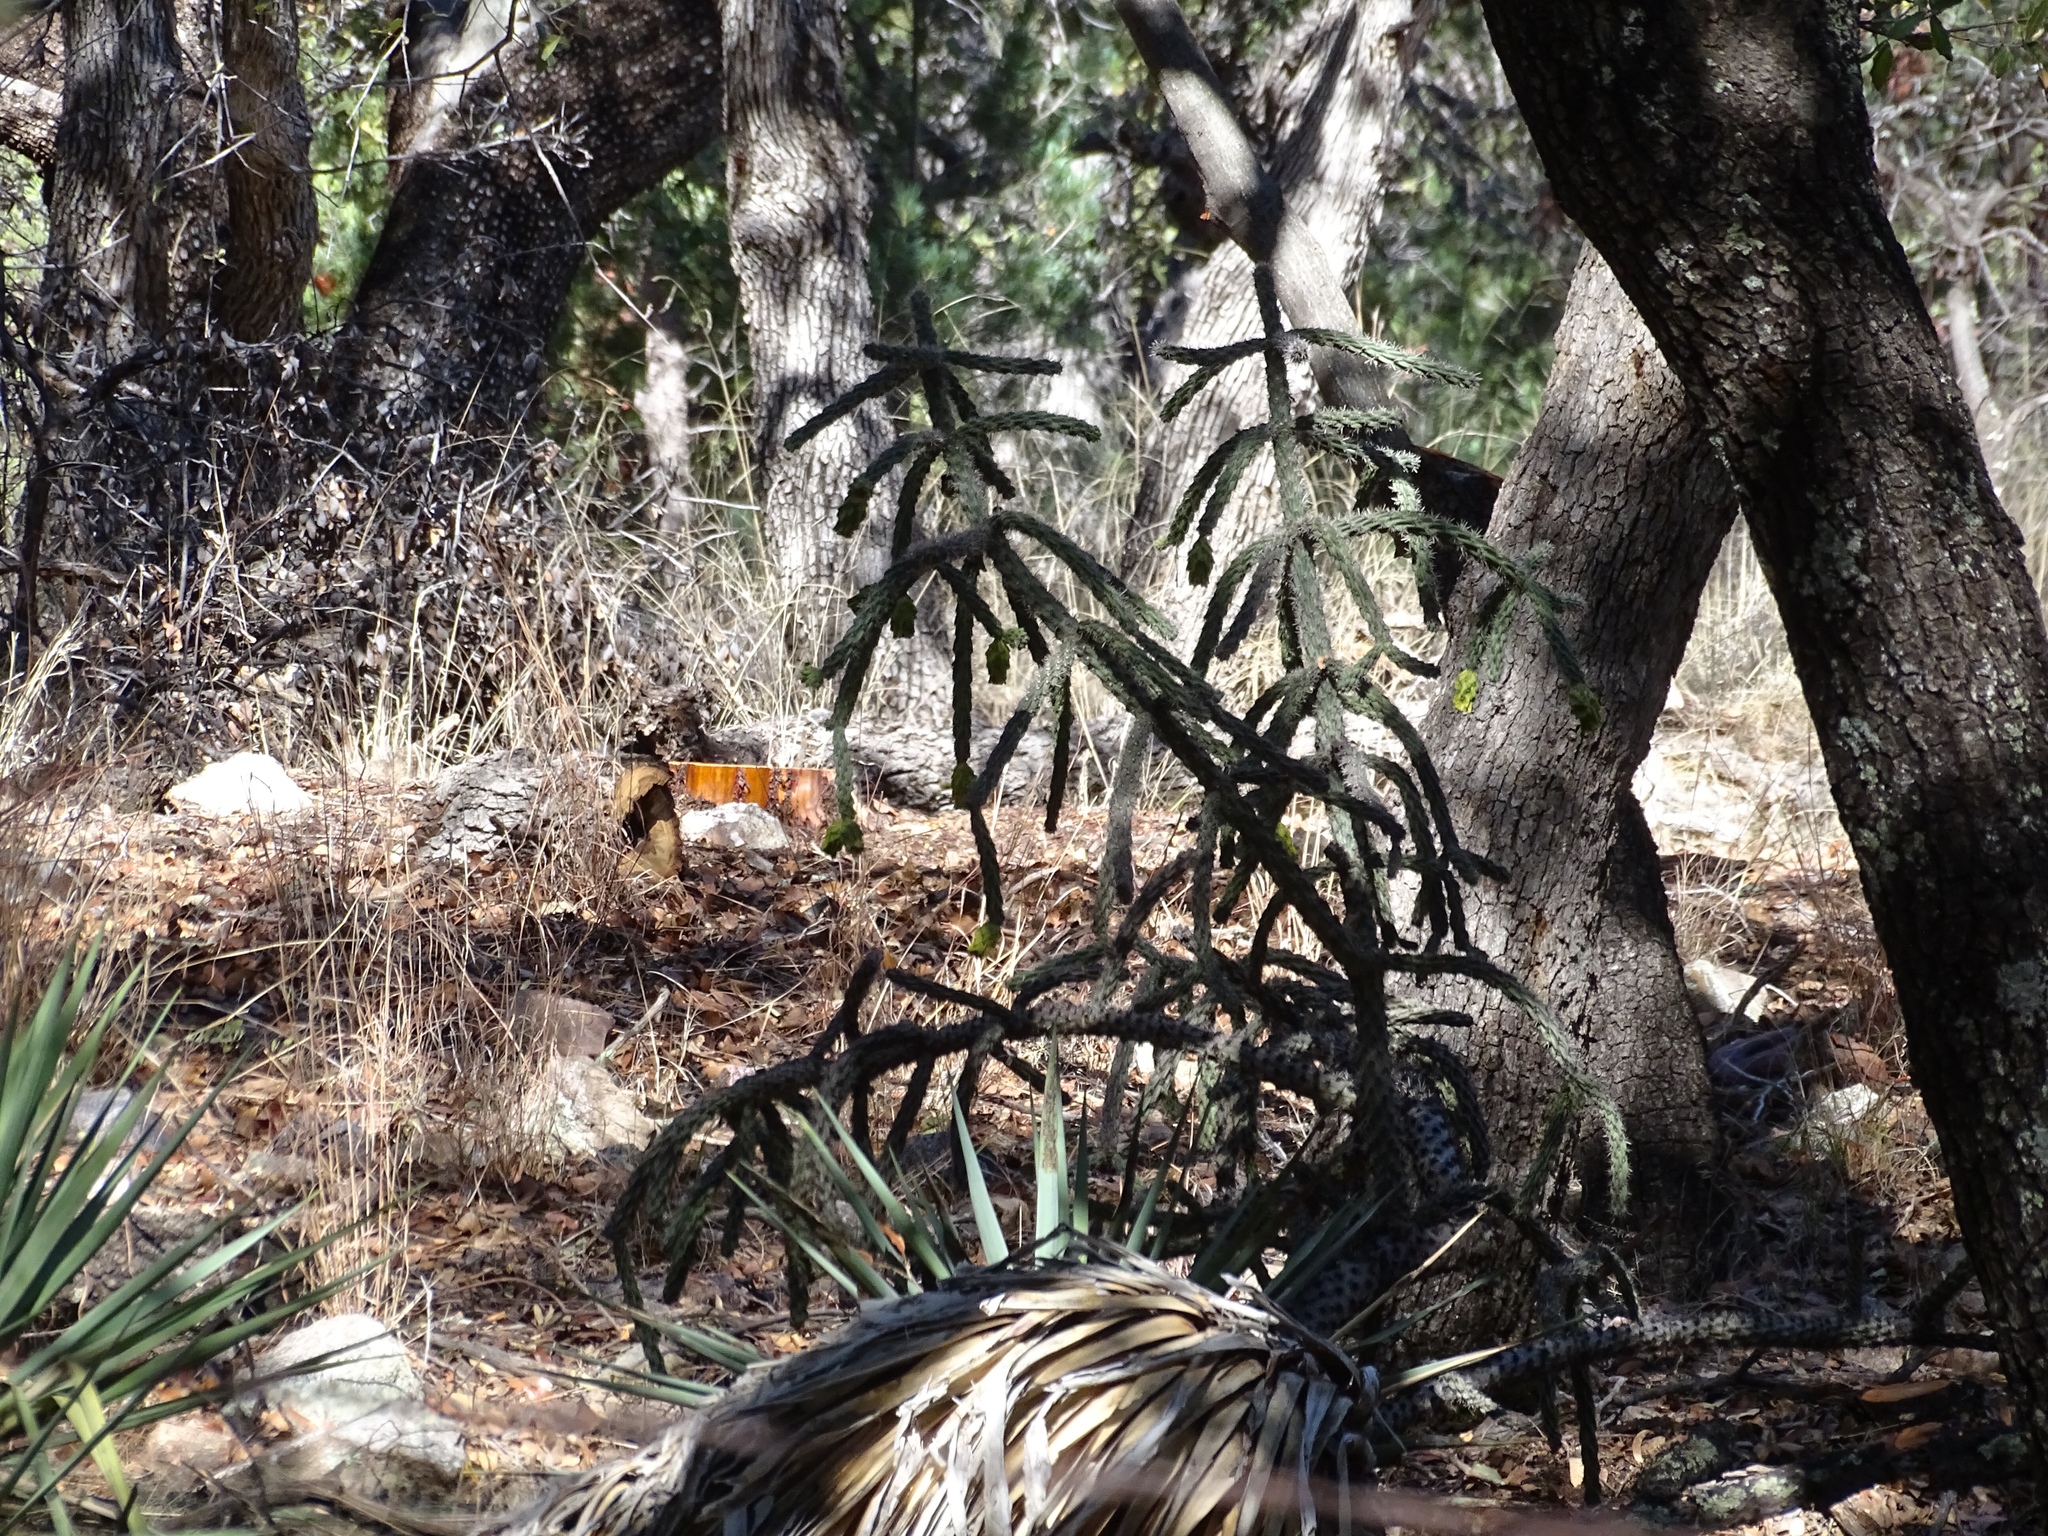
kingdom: Plantae
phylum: Tracheophyta
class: Magnoliopsida
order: Caryophyllales
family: Cactaceae
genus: Cylindropuntia
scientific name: Cylindropuntia imbricata
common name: Candelabrum cactus
